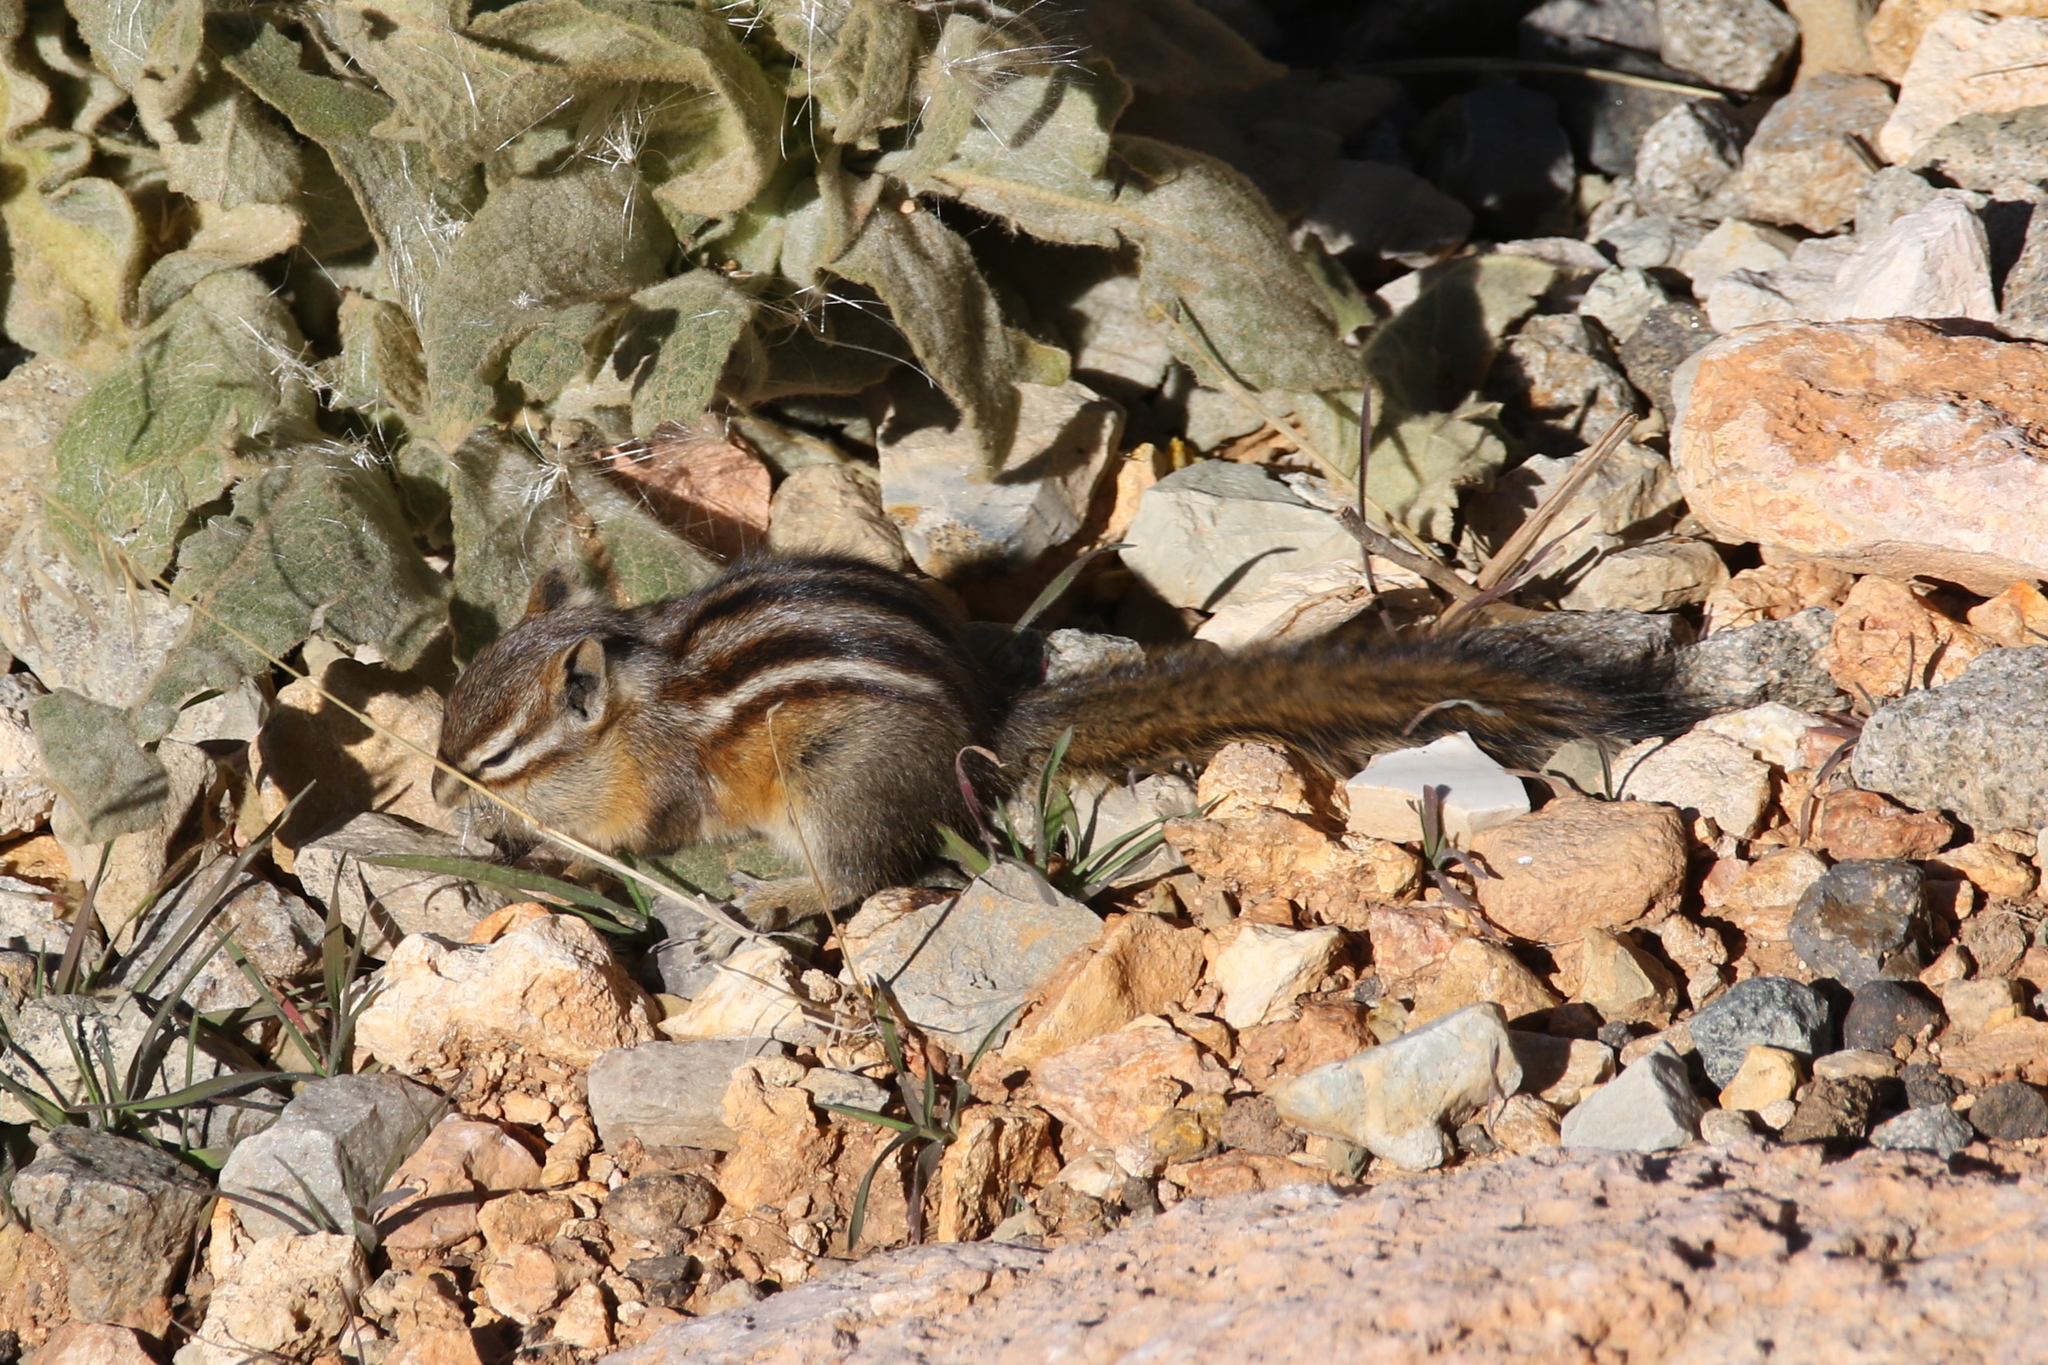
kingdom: Animalia
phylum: Chordata
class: Mammalia
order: Rodentia
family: Sciuridae
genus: Tamias
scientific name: Tamias minimus
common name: Least chipmunk
